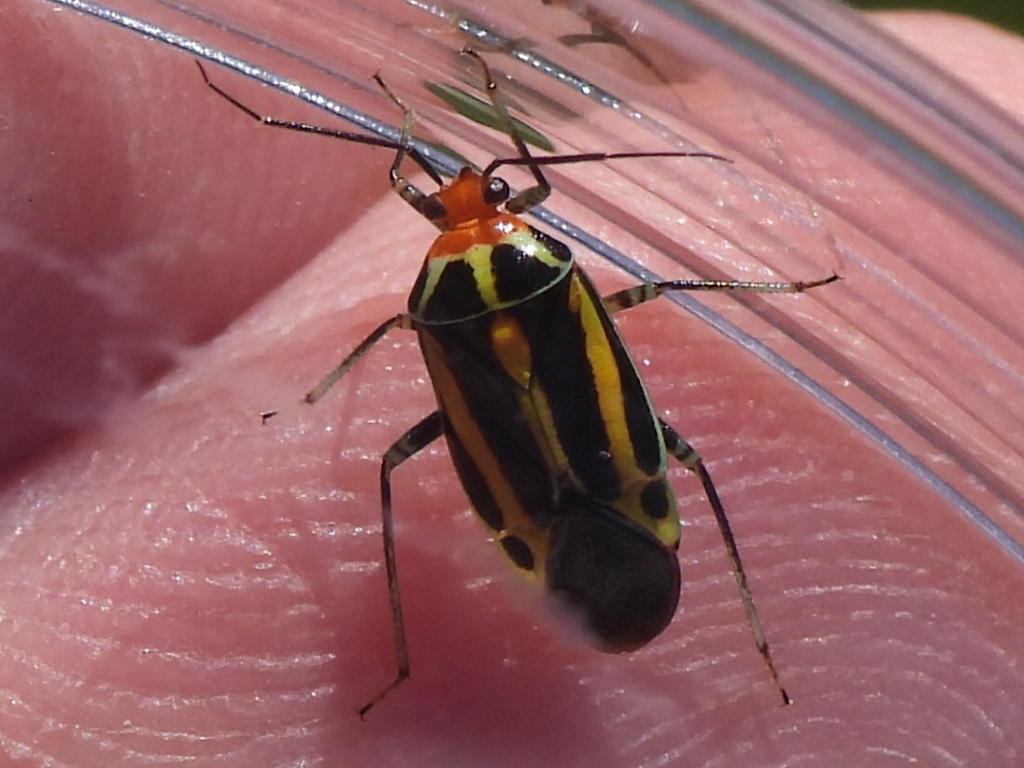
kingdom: Animalia
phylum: Arthropoda
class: Insecta
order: Hemiptera
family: Miridae
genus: Poecilocapsus
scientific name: Poecilocapsus lineatus
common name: Four-lined plant bug
